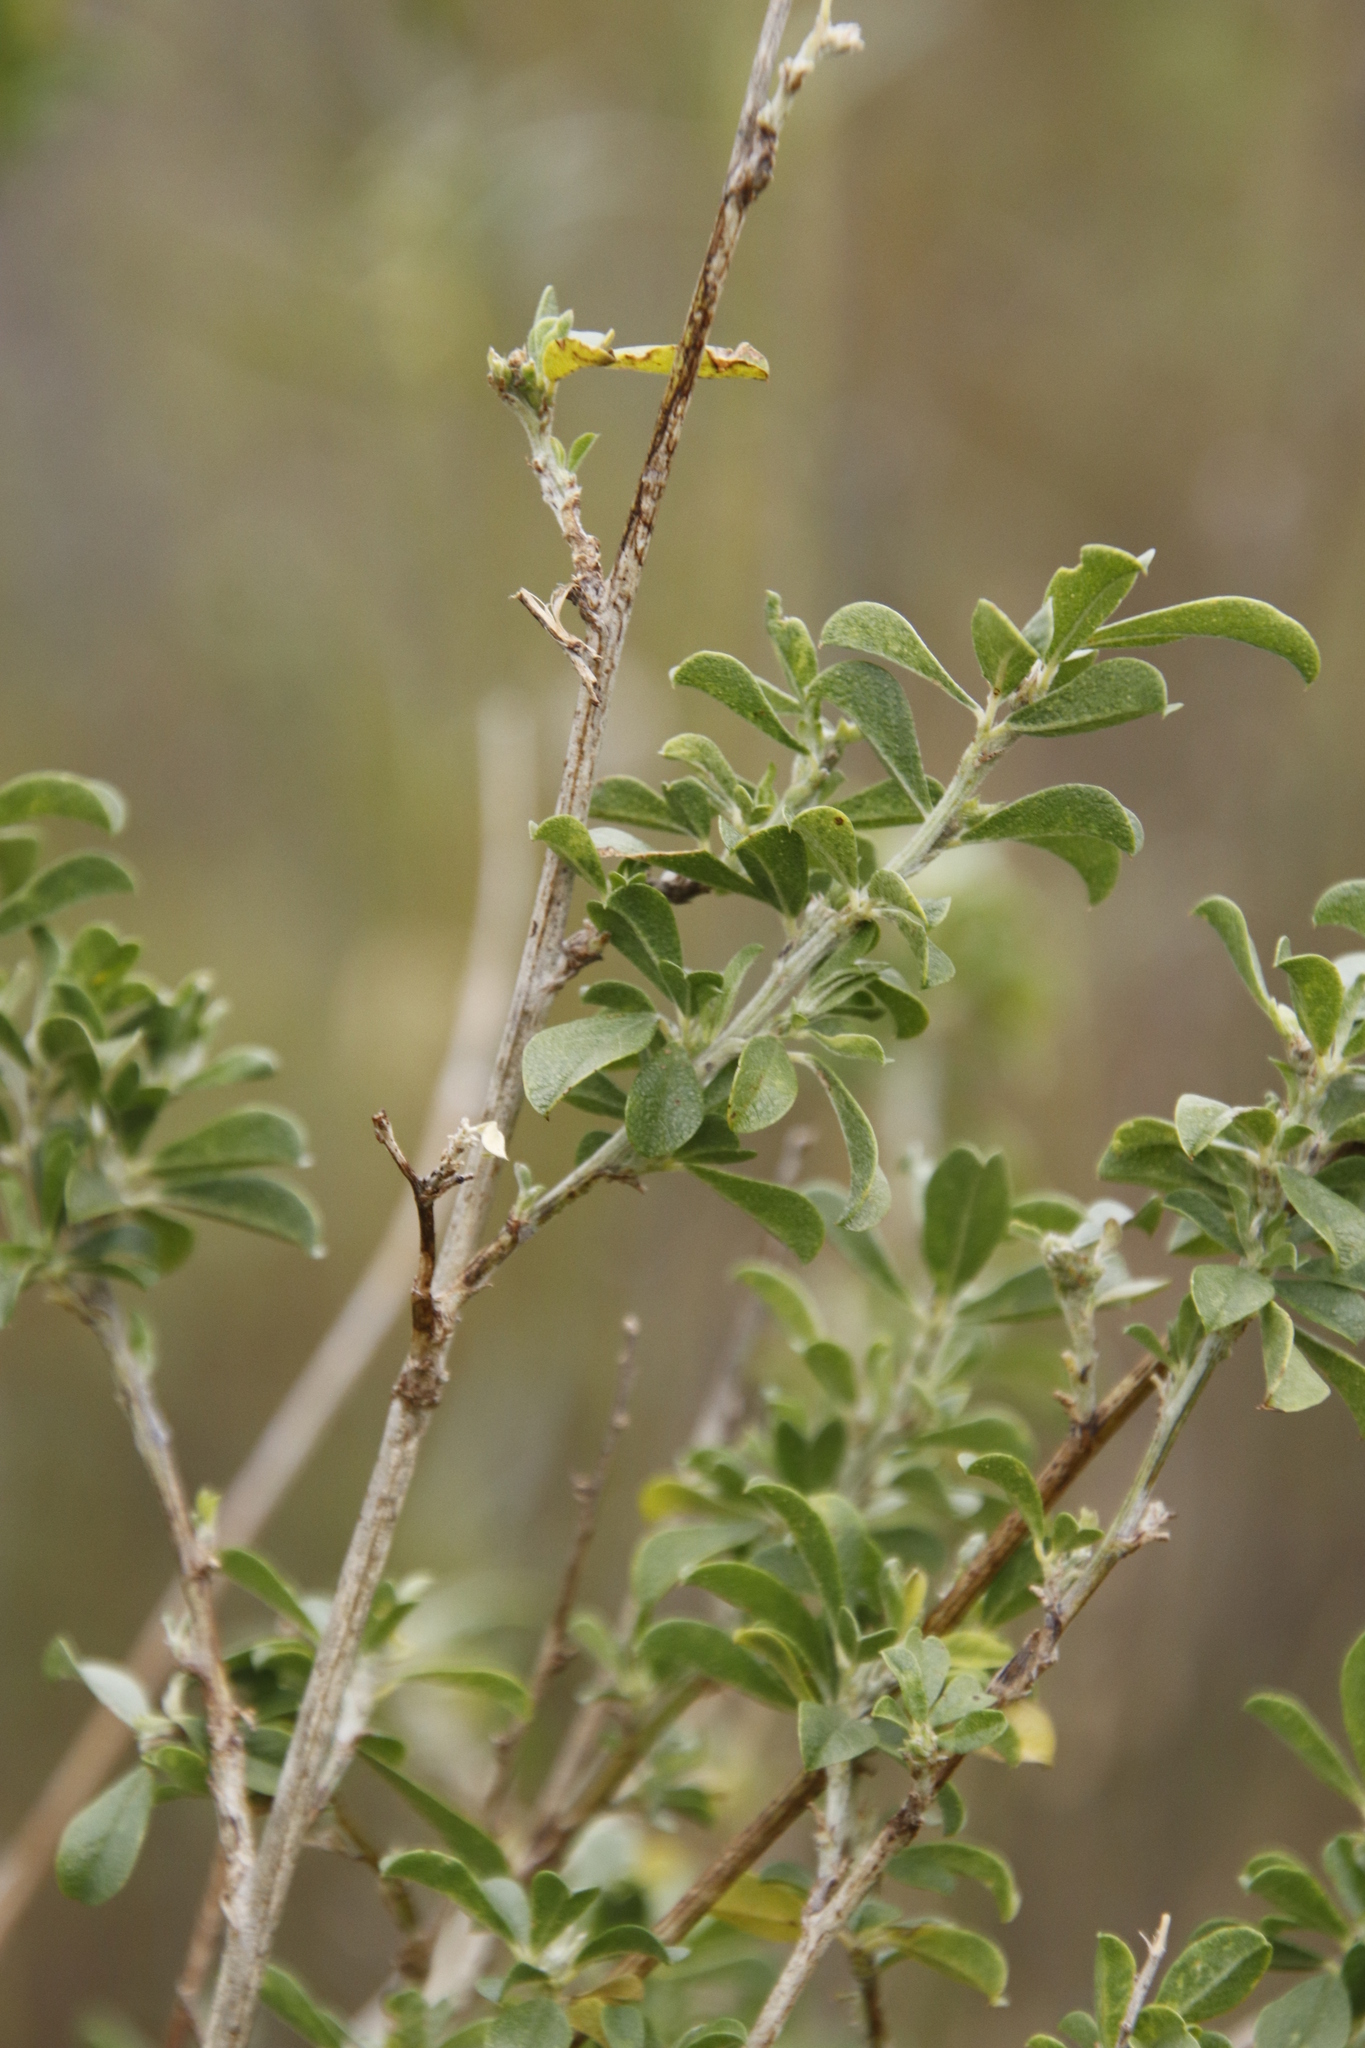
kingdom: Plantae
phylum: Tracheophyta
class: Magnoliopsida
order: Fabales
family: Fabaceae
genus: Psoralea
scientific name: Psoralea striata
